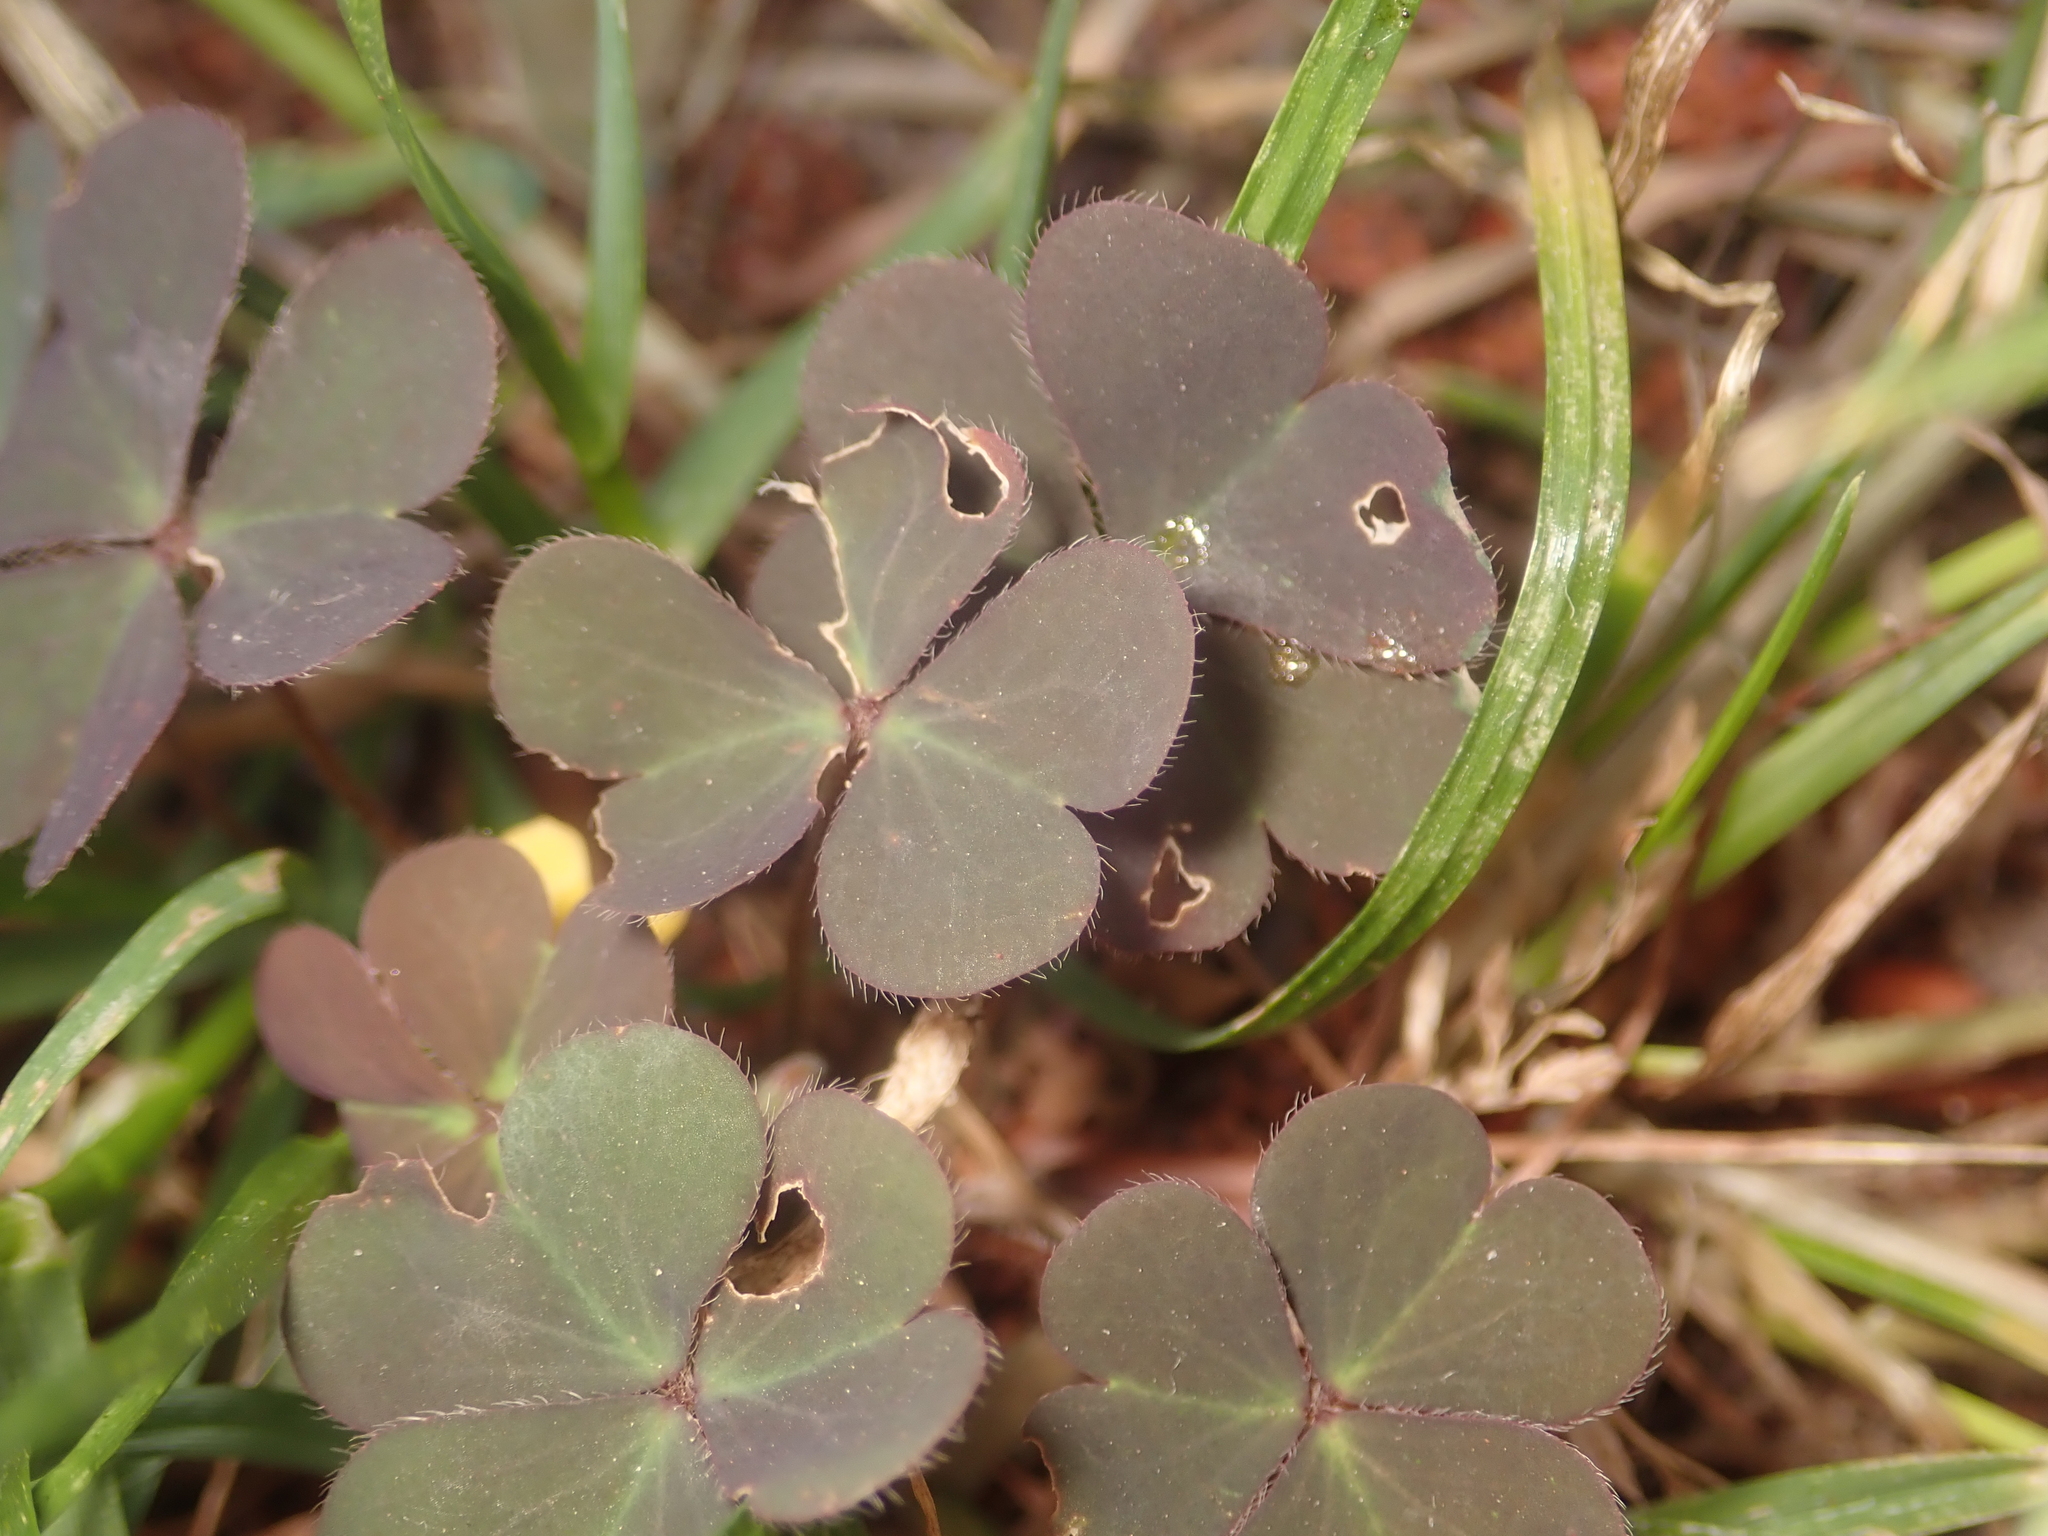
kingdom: Plantae
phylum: Tracheophyta
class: Magnoliopsida
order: Oxalidales
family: Oxalidaceae
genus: Oxalis
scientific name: Oxalis corniculata
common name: Procumbent yellow-sorrel
